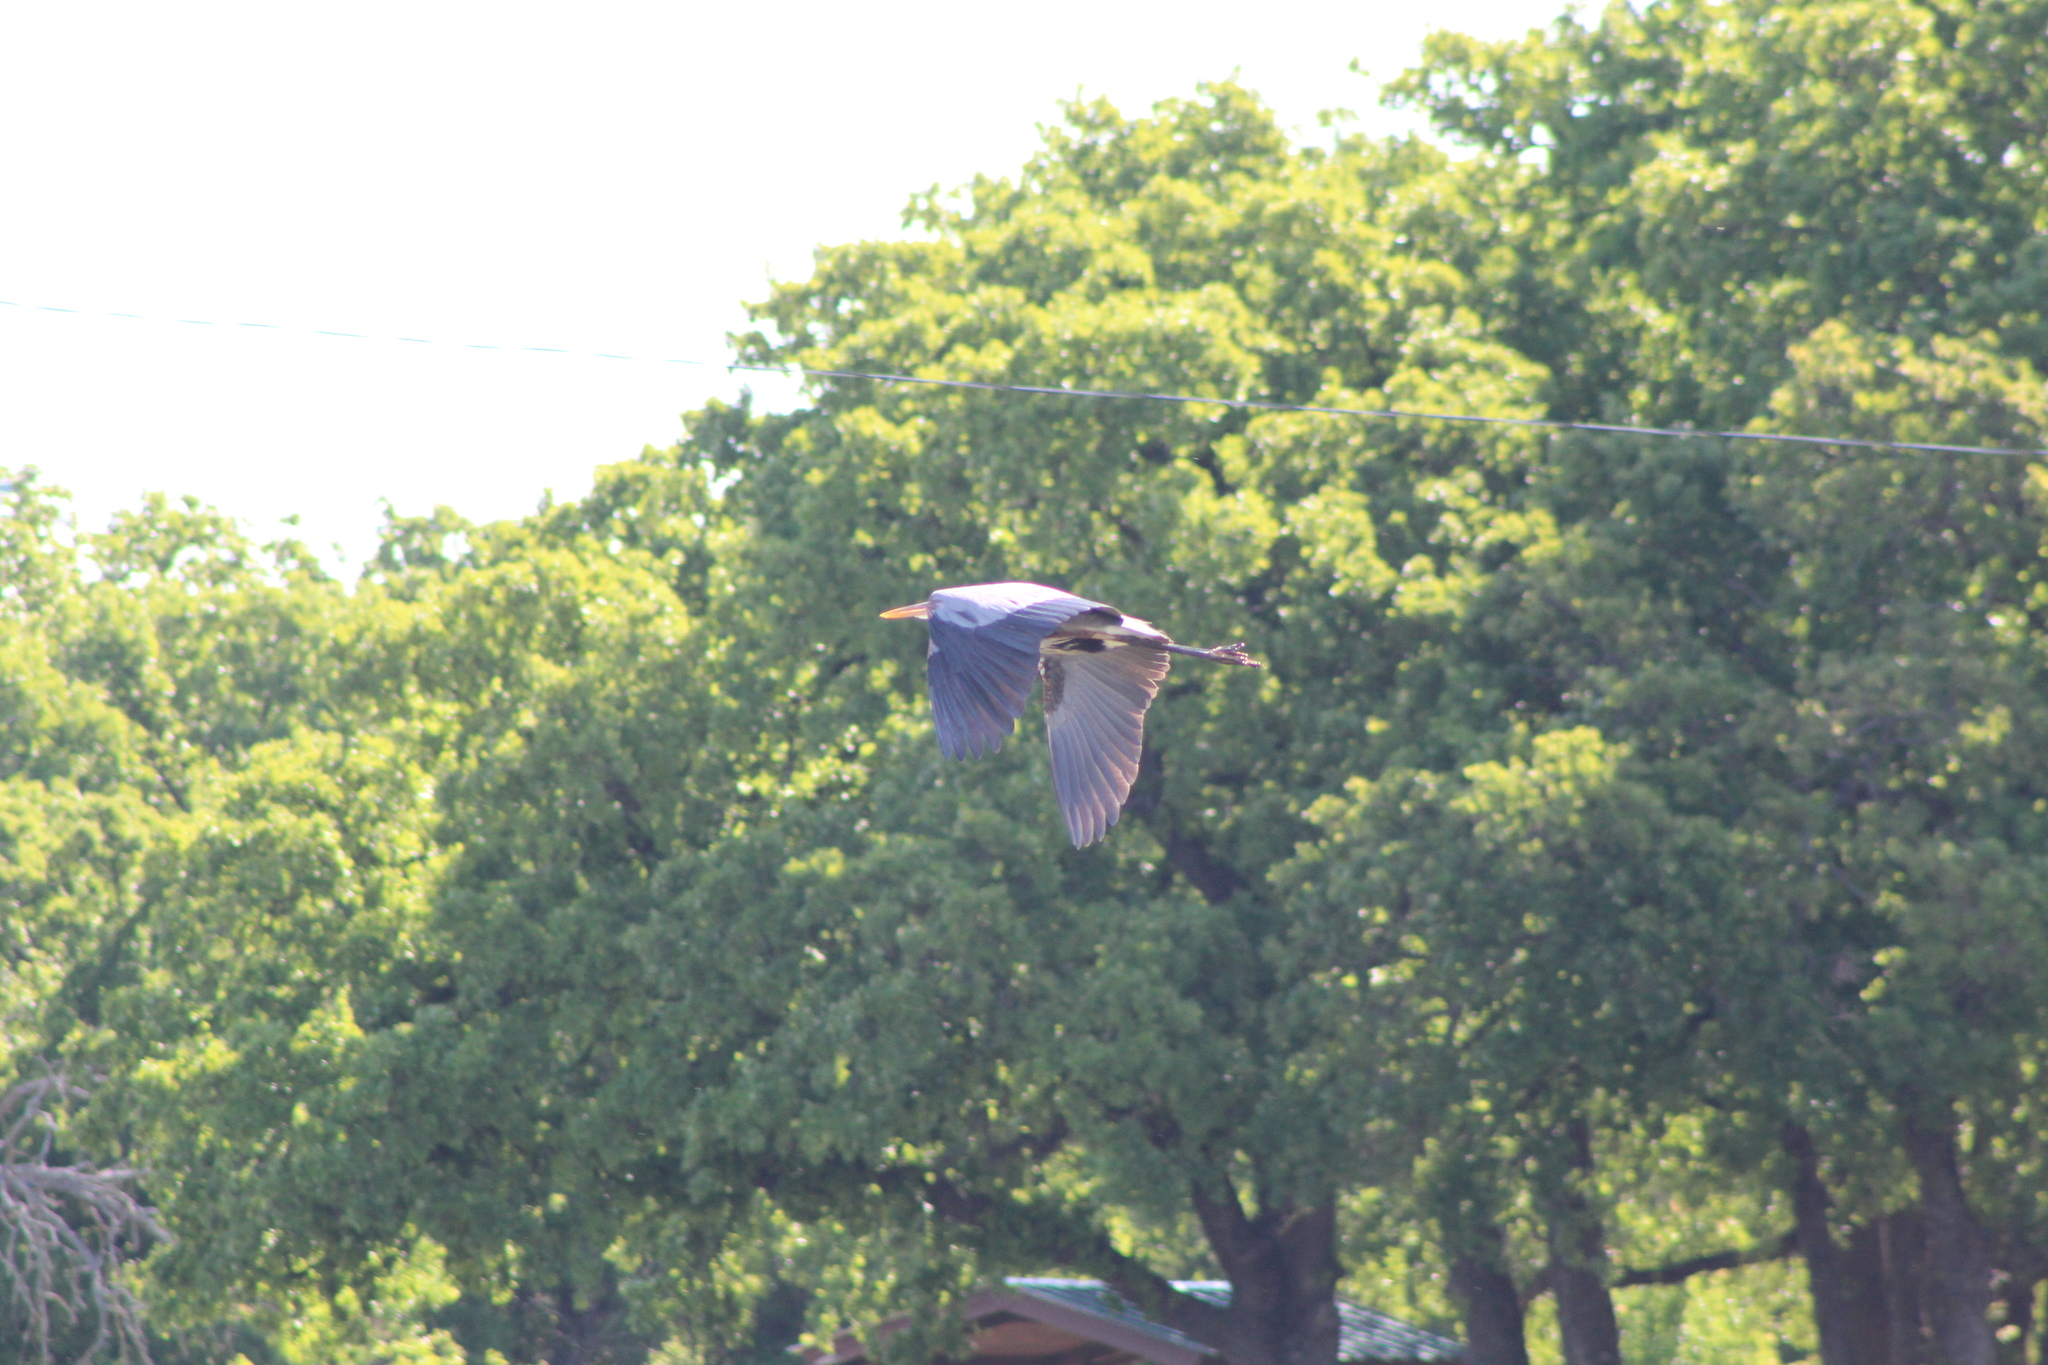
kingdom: Animalia
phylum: Chordata
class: Aves
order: Pelecaniformes
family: Ardeidae
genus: Ardea
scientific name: Ardea herodias
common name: Great blue heron
